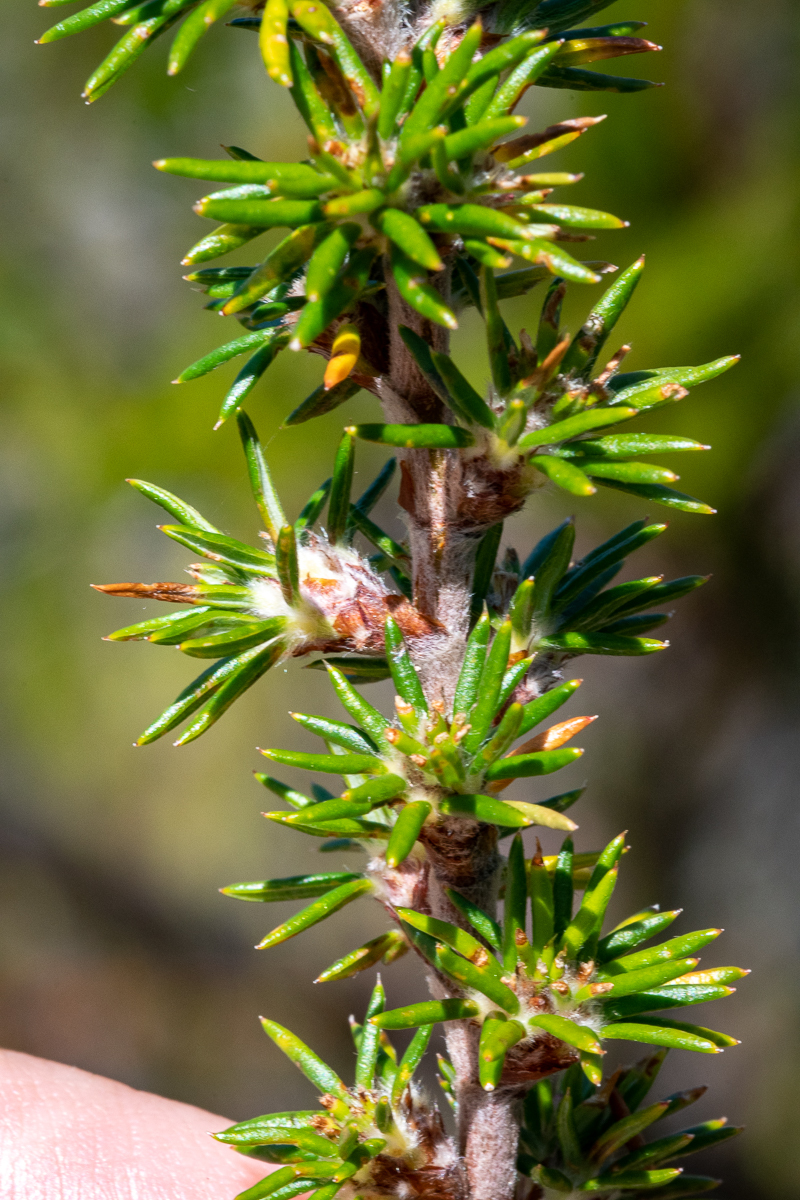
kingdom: Plantae
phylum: Tracheophyta
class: Magnoliopsida
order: Rosales
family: Rosaceae
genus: Cliffortia
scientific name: Cliffortia stricta
